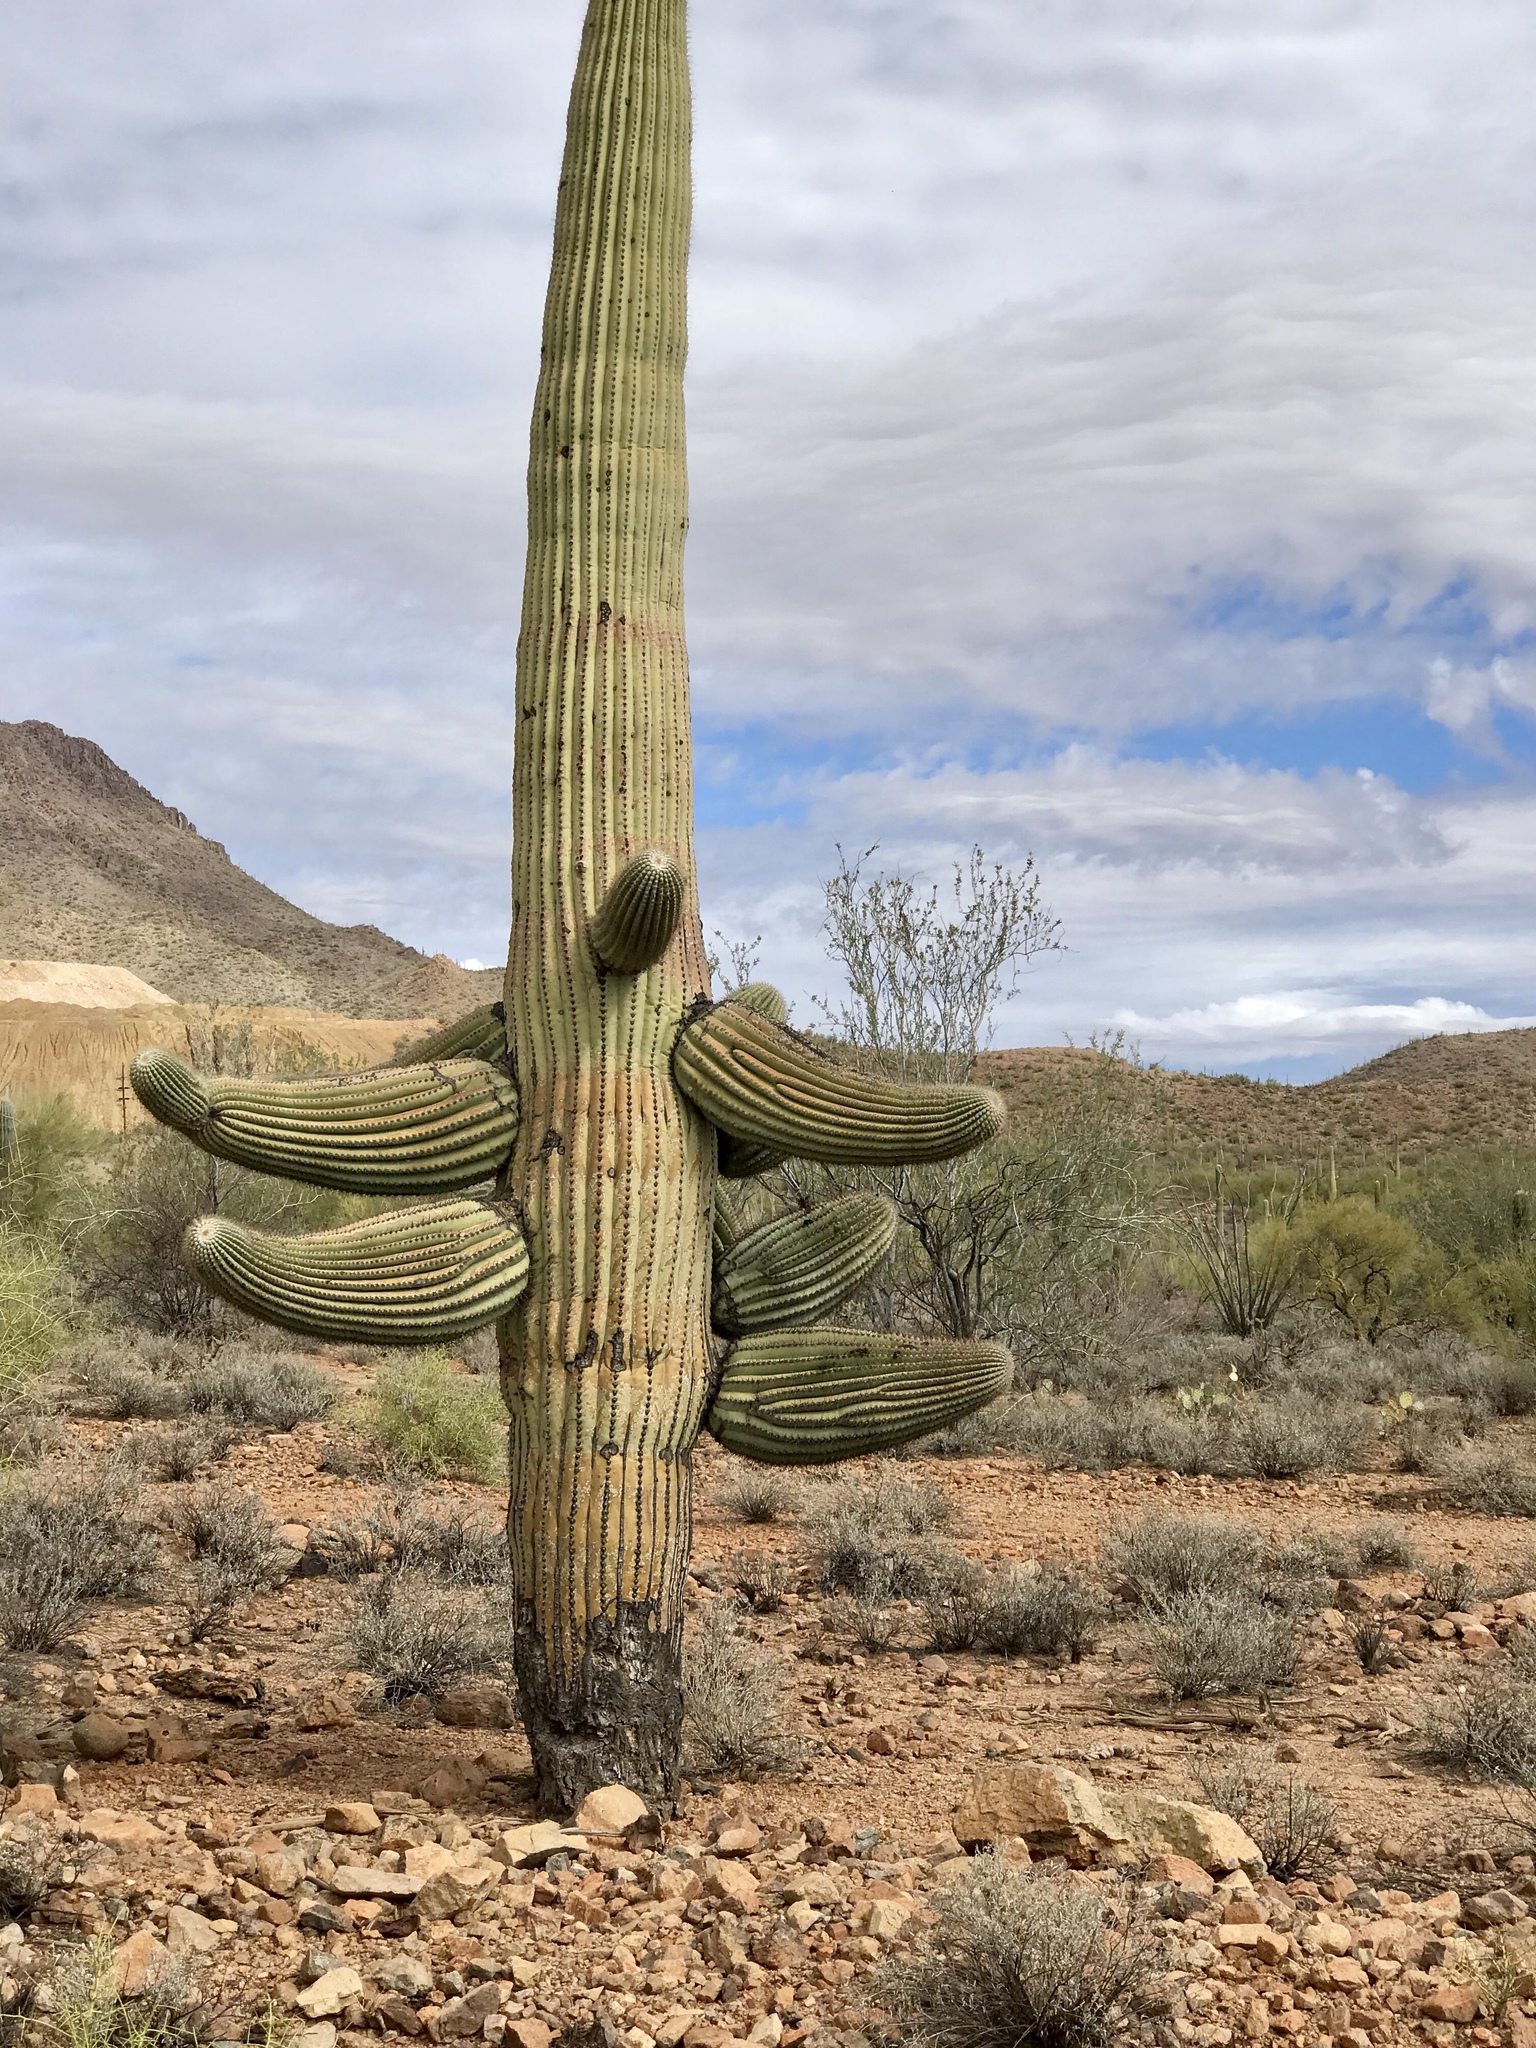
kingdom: Plantae
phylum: Tracheophyta
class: Magnoliopsida
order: Caryophyllales
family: Cactaceae
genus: Carnegiea
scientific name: Carnegiea gigantea
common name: Saguaro
